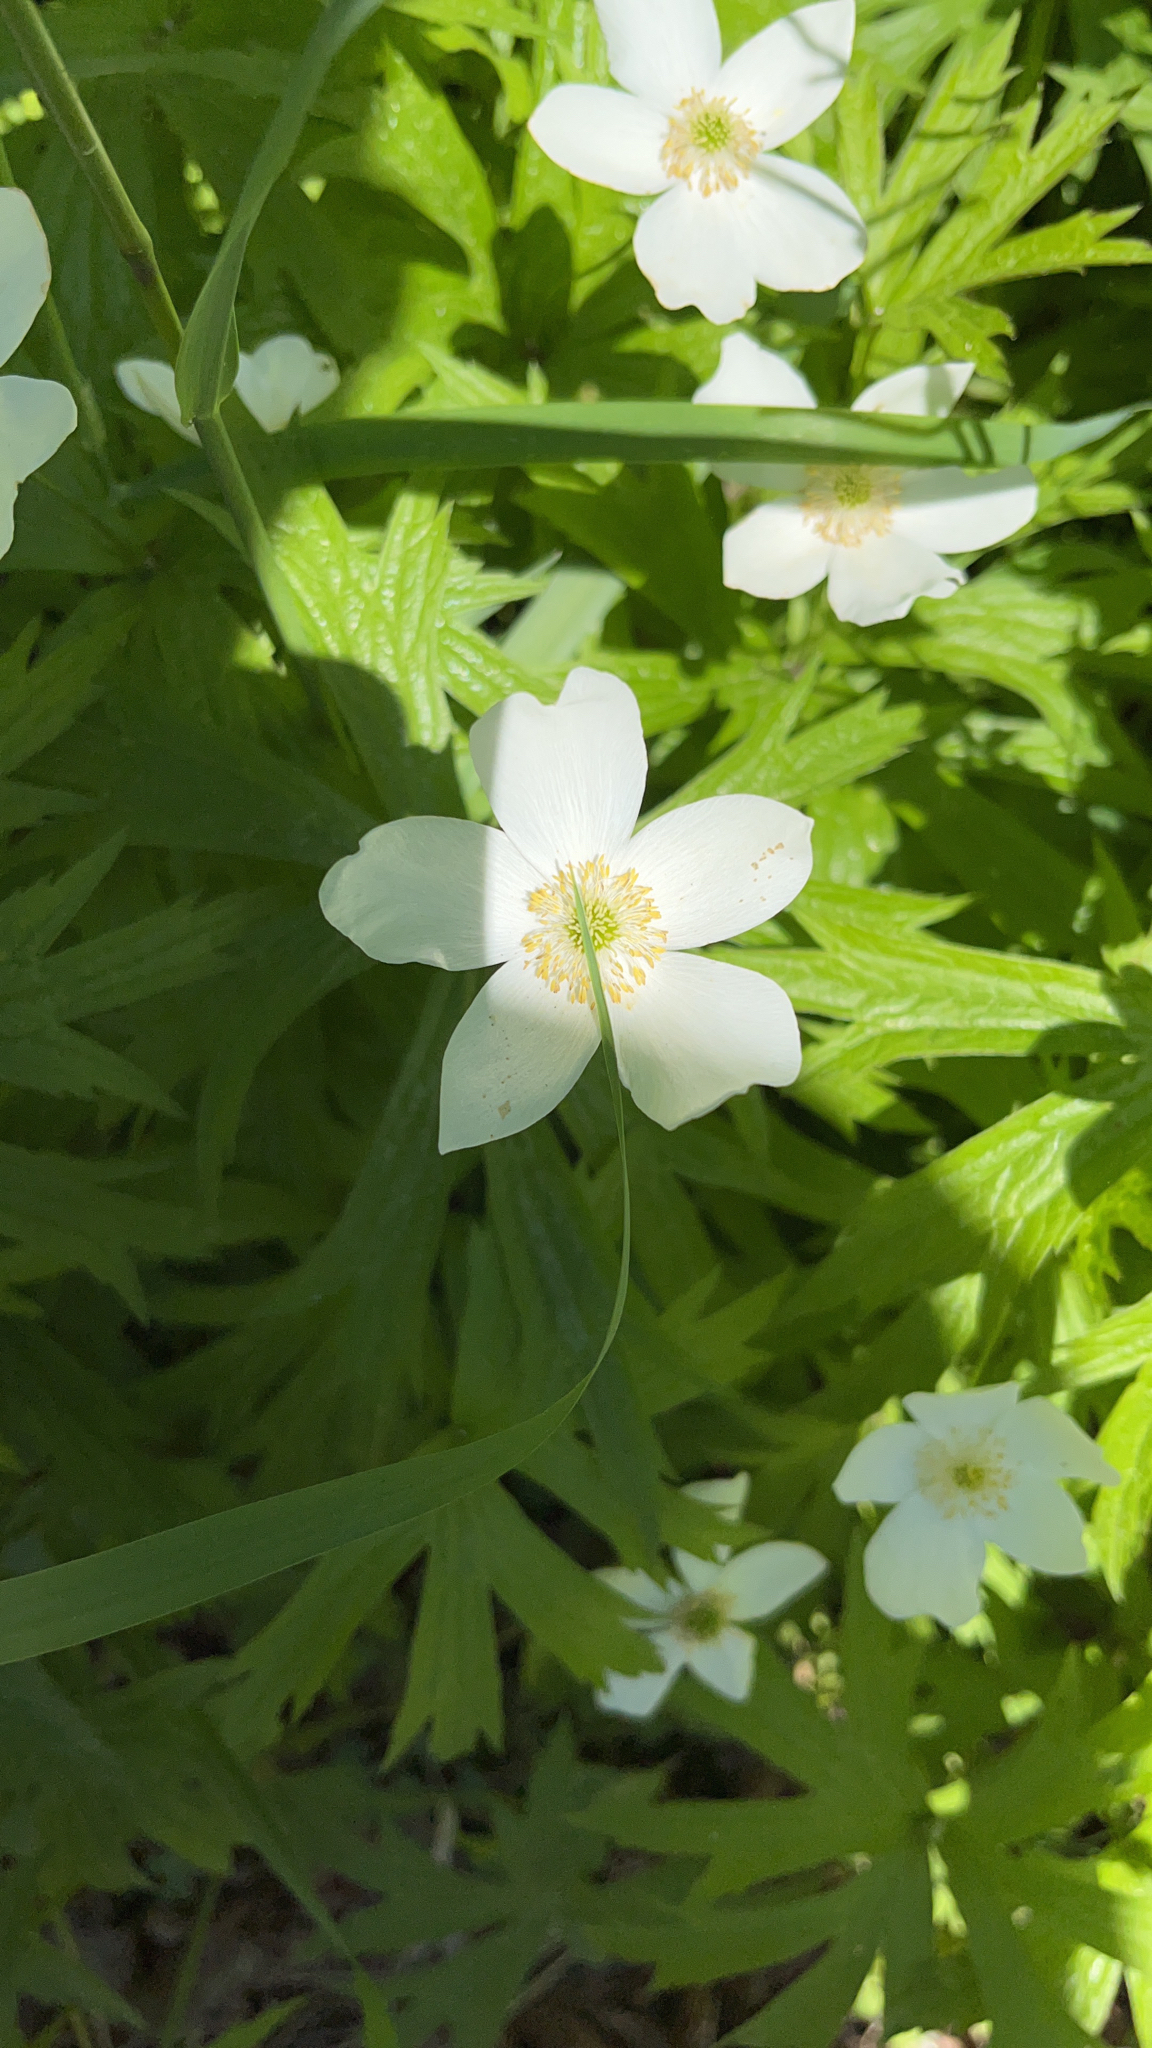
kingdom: Plantae
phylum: Tracheophyta
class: Magnoliopsida
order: Ranunculales
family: Ranunculaceae
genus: Anemonastrum
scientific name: Anemonastrum canadense
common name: Canada anemone
